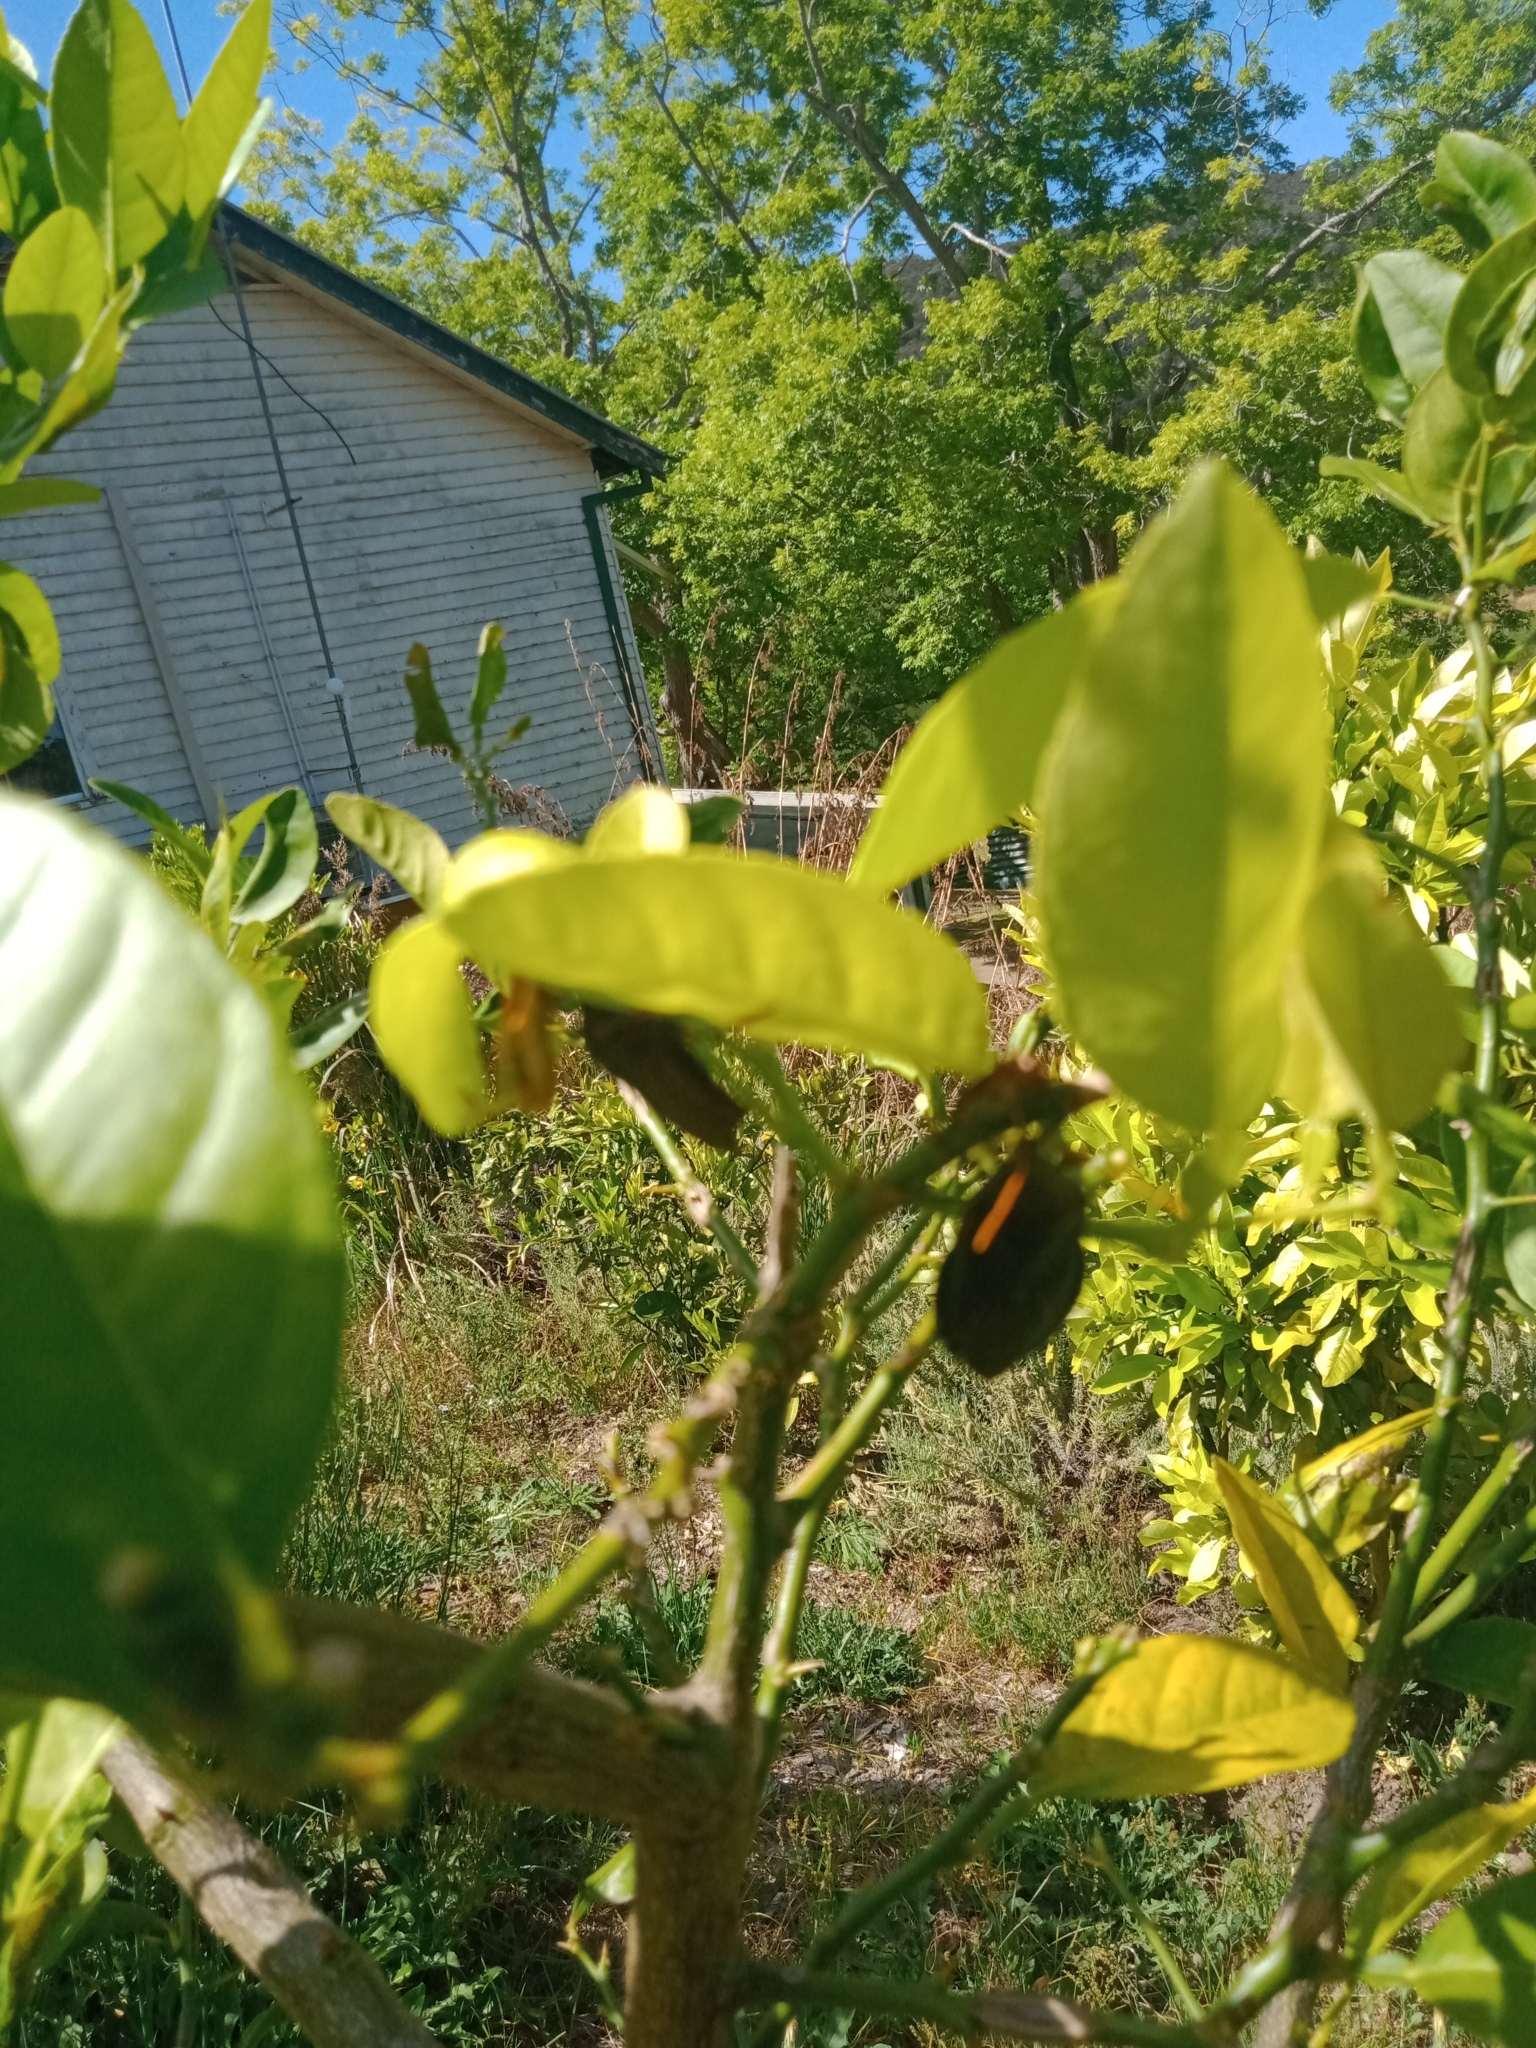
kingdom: Animalia
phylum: Arthropoda
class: Insecta
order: Hemiptera
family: Tessaratomidae
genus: Musgraveia
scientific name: Musgraveia sulciventris
